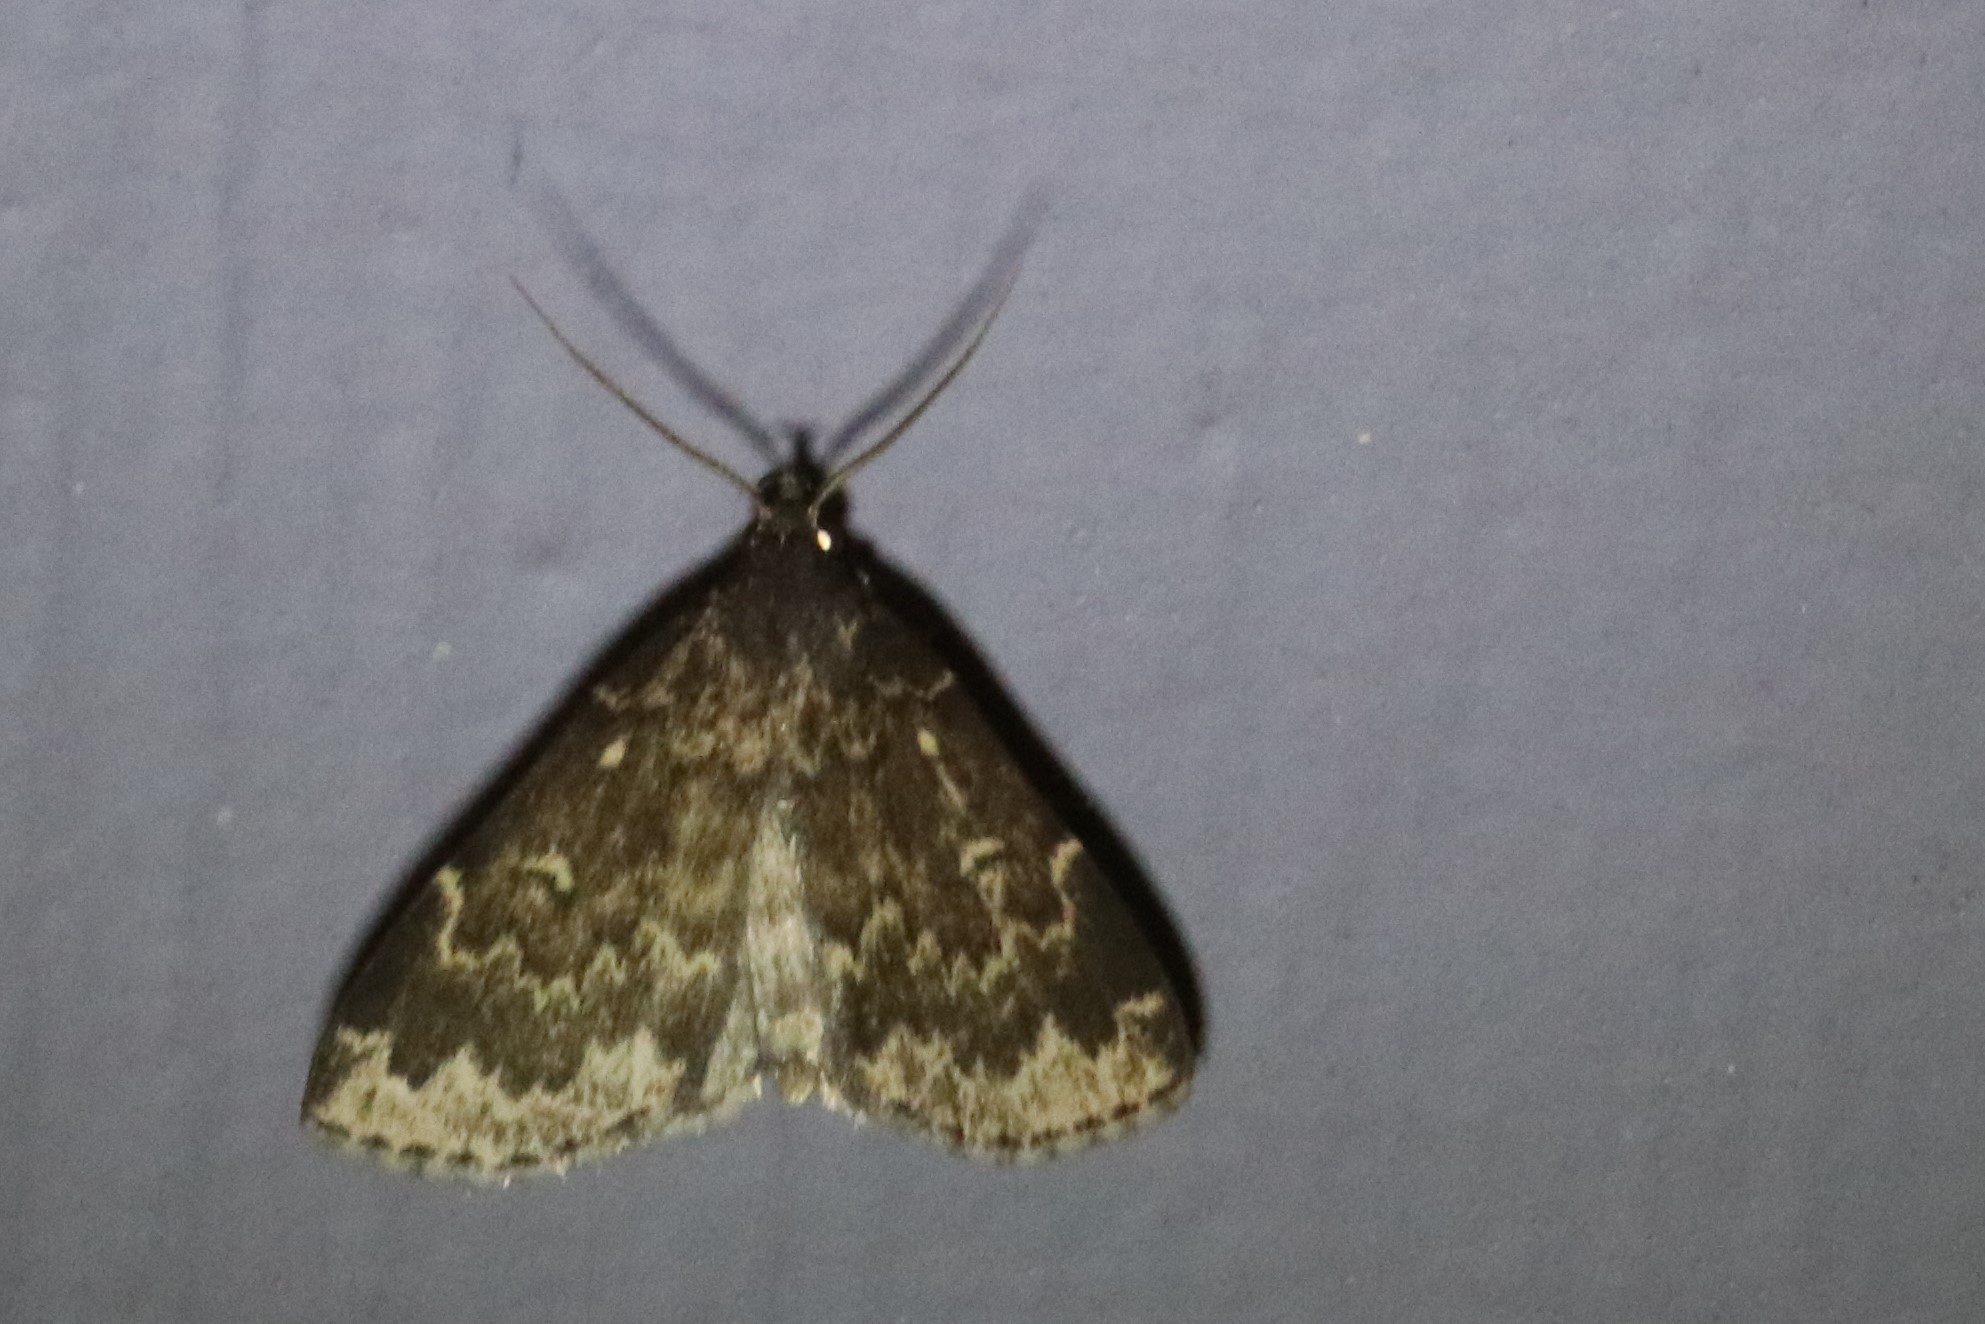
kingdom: Animalia
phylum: Arthropoda
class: Insecta
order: Lepidoptera
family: Erebidae
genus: Idia
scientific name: Idia lubricalis
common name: Twin-striped tabby
